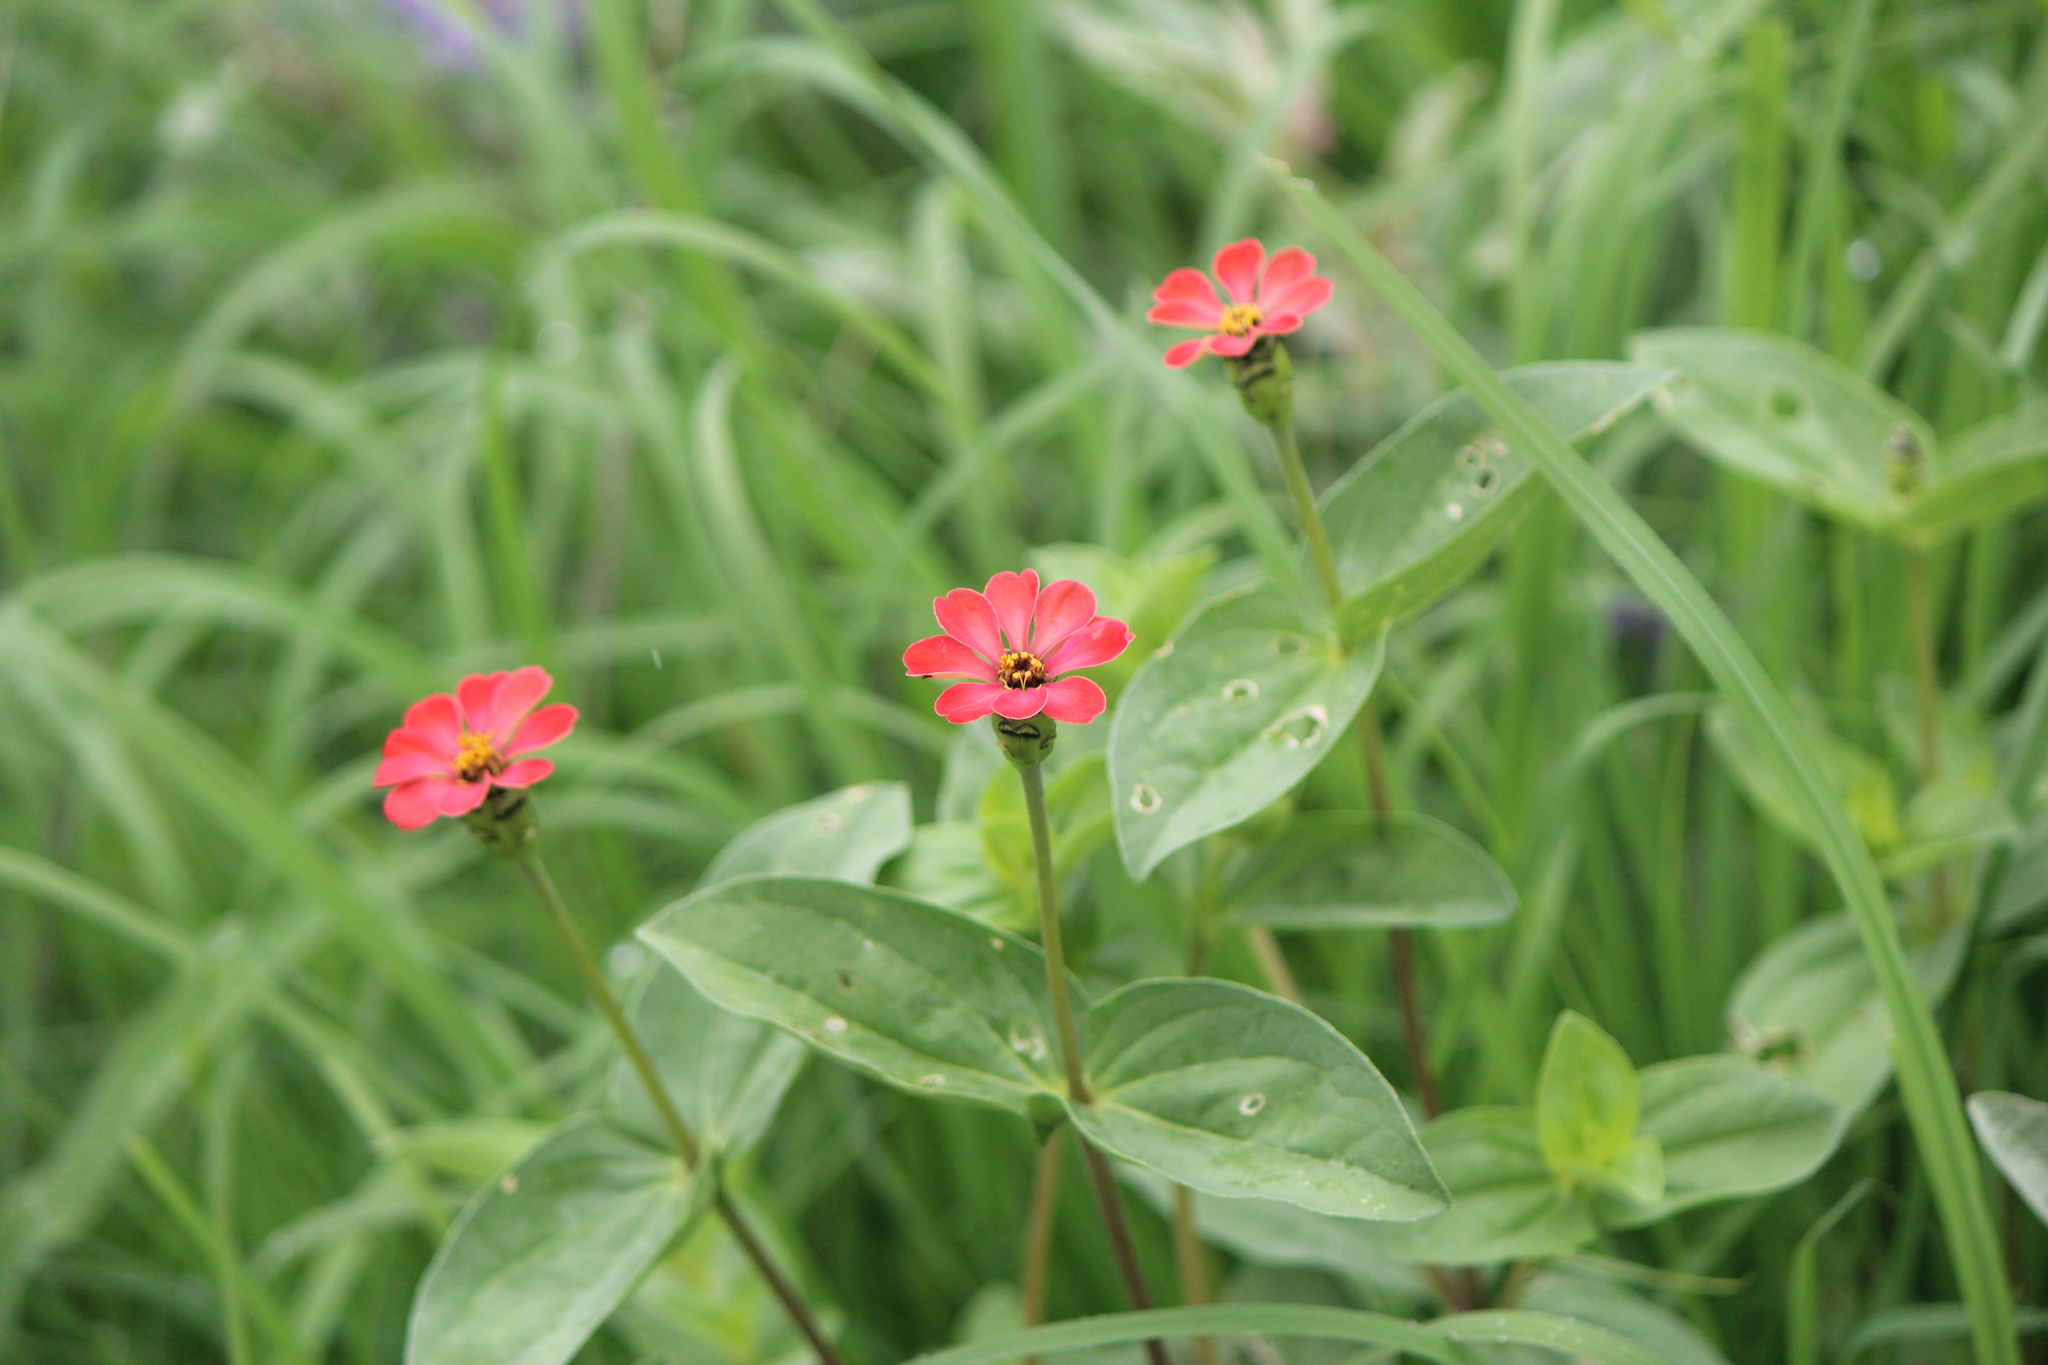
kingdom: Plantae
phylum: Tracheophyta
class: Magnoliopsida
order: Asterales
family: Asteraceae
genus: Zinnia
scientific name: Zinnia peruviana
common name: Peruvian zinnia
